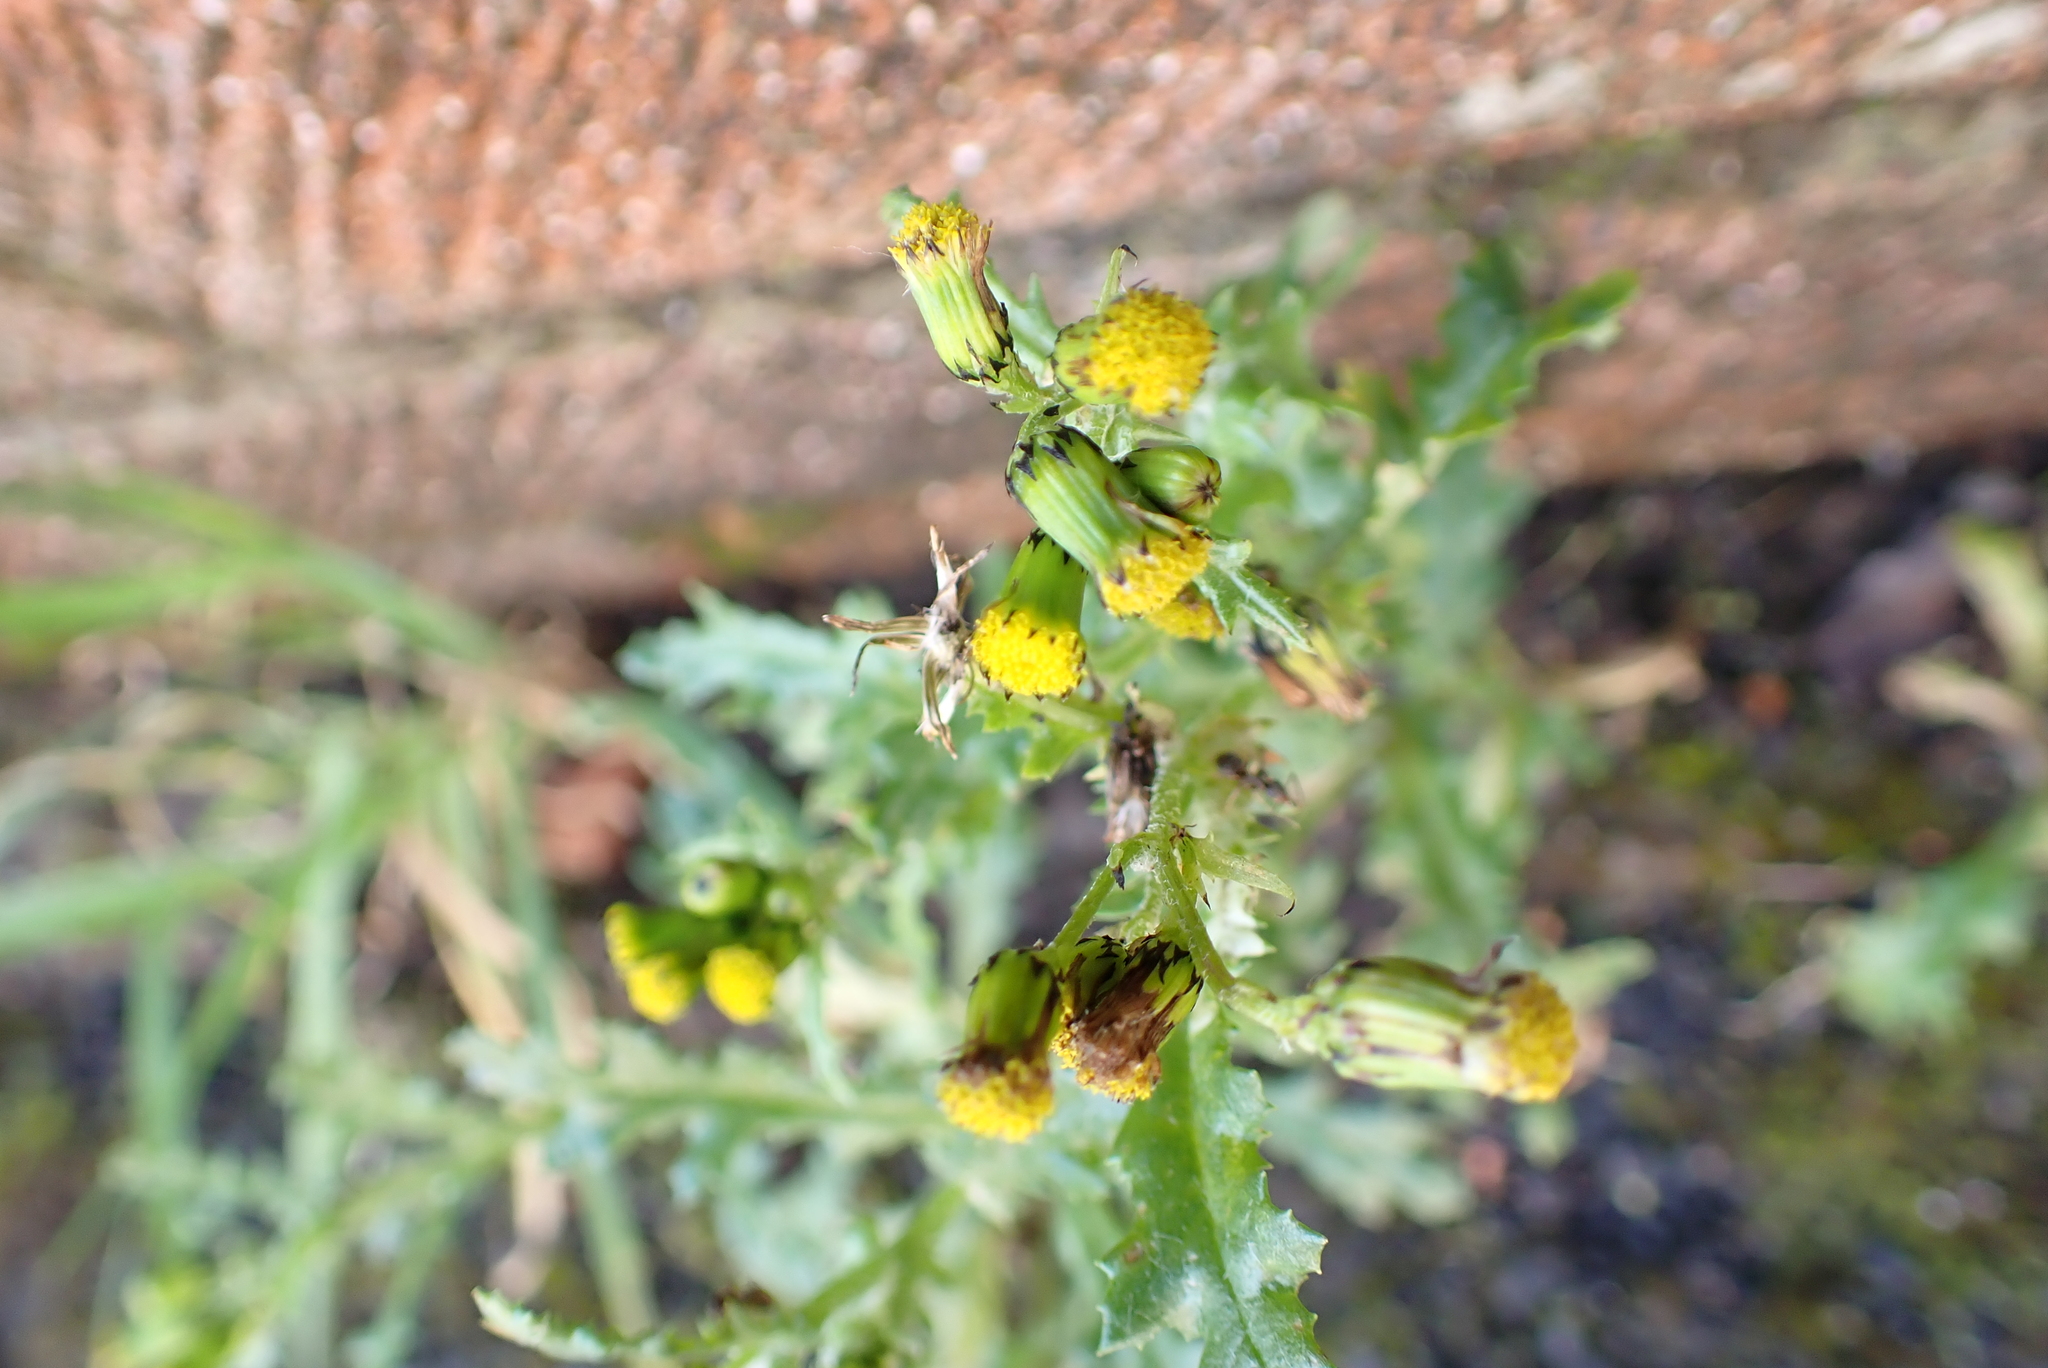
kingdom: Plantae
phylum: Tracheophyta
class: Magnoliopsida
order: Asterales
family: Asteraceae
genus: Senecio
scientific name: Senecio vulgaris
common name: Old-man-in-the-spring
